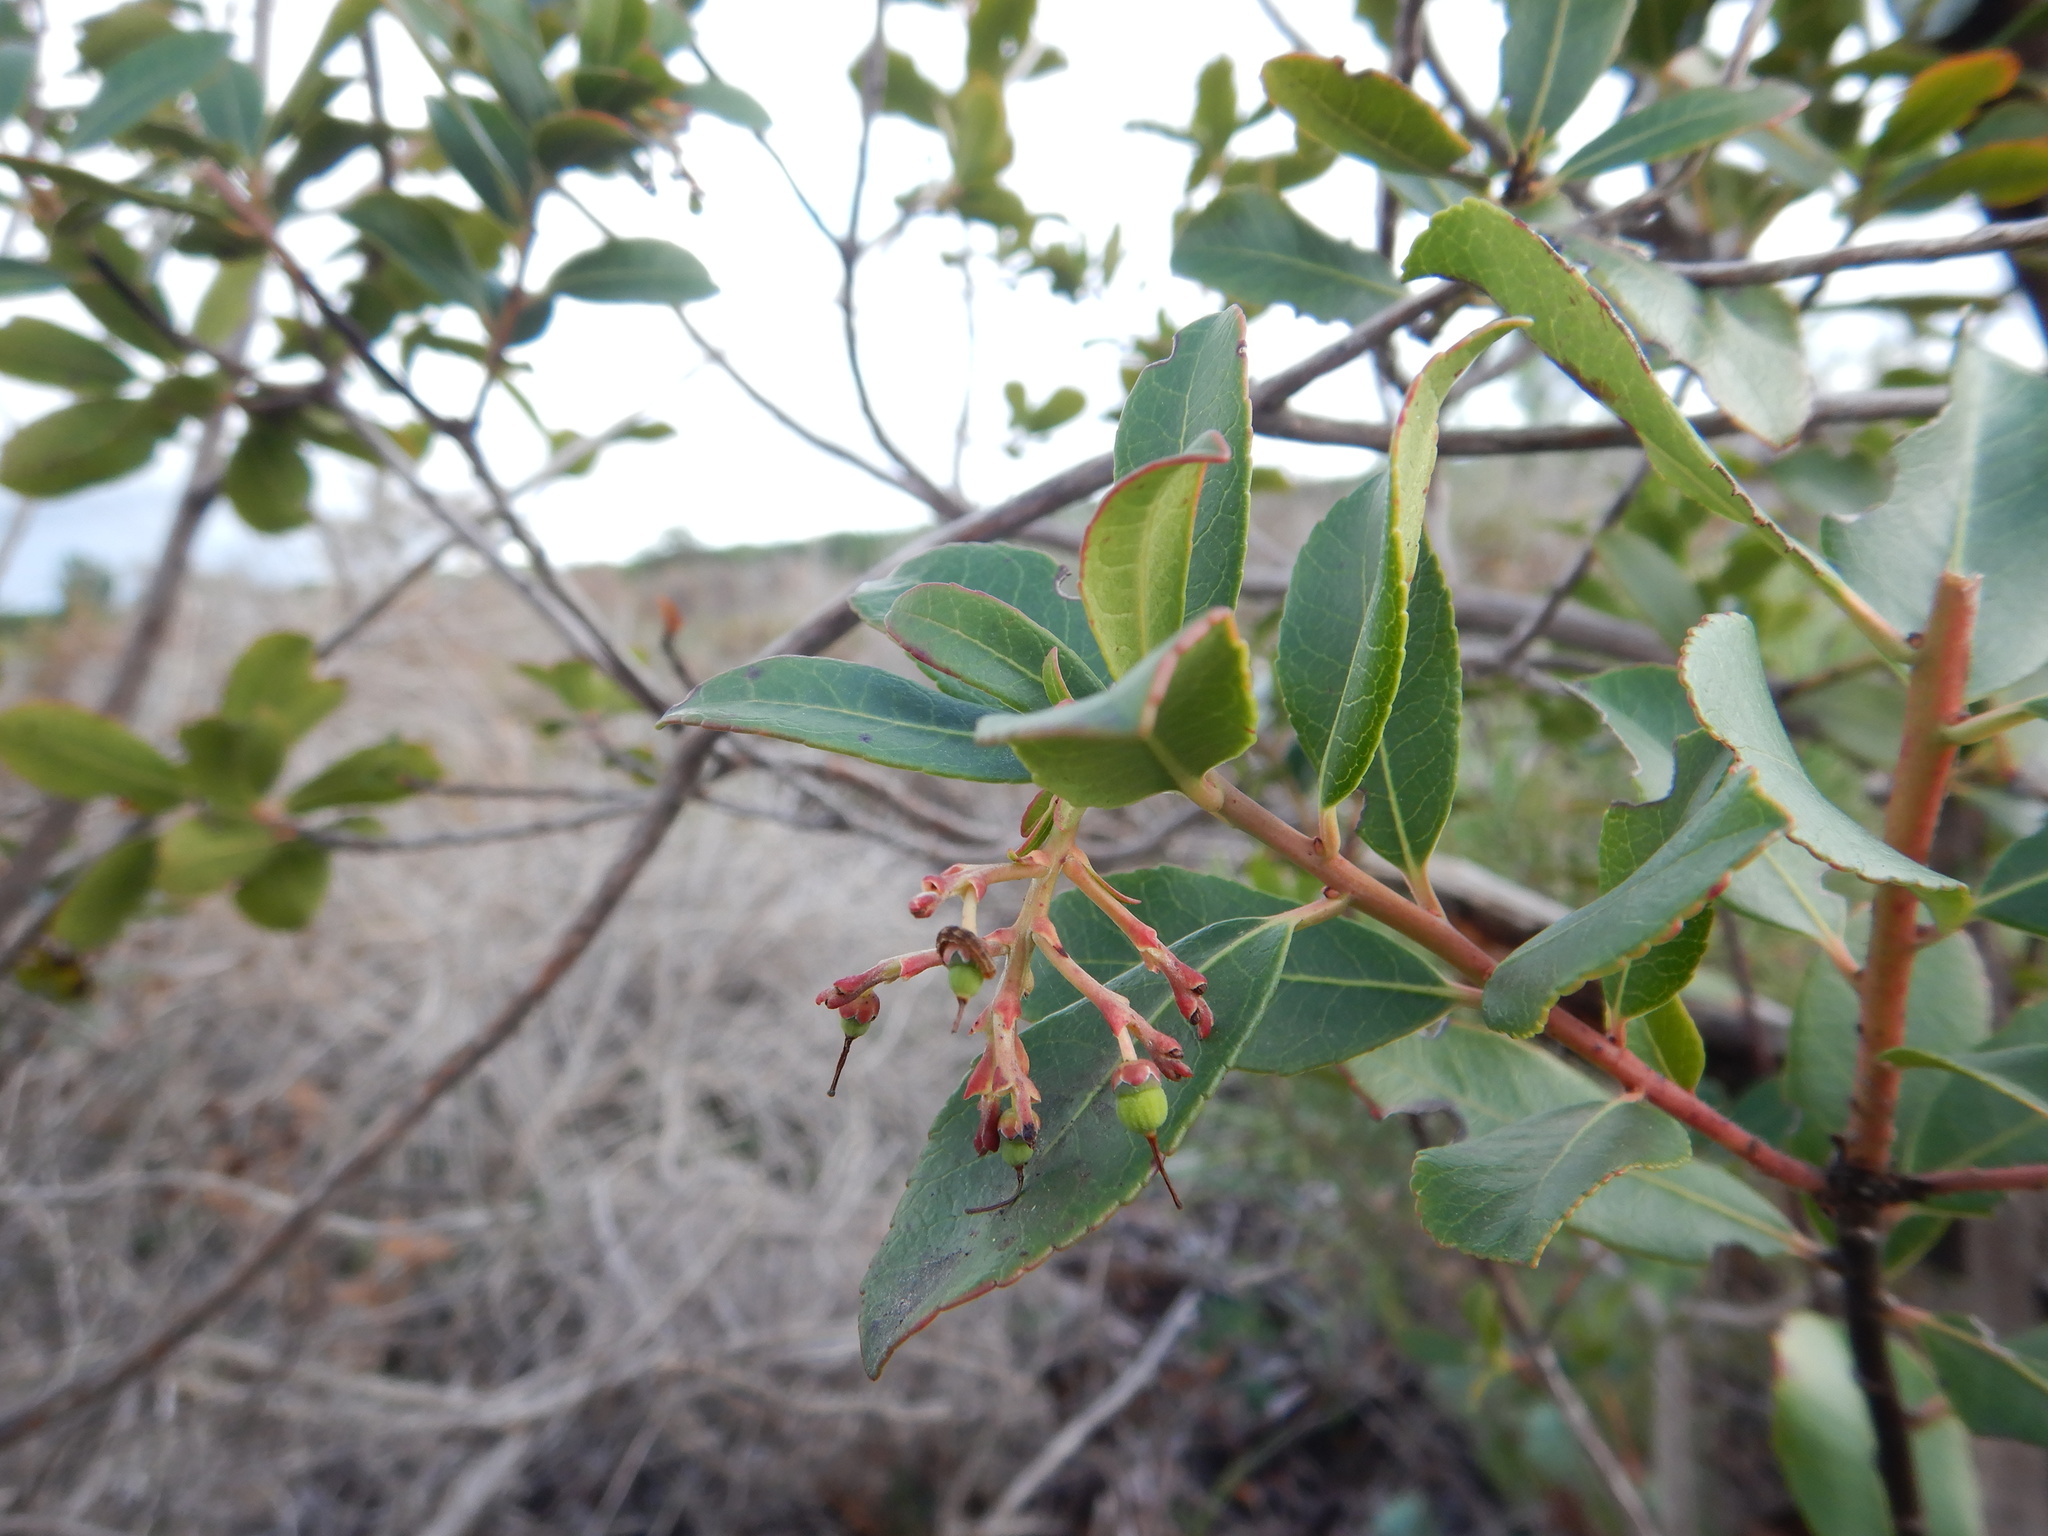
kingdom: Plantae
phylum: Tracheophyta
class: Magnoliopsida
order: Ericales
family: Ericaceae
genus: Arbutus
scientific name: Arbutus unedo
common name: Strawberry-tree
